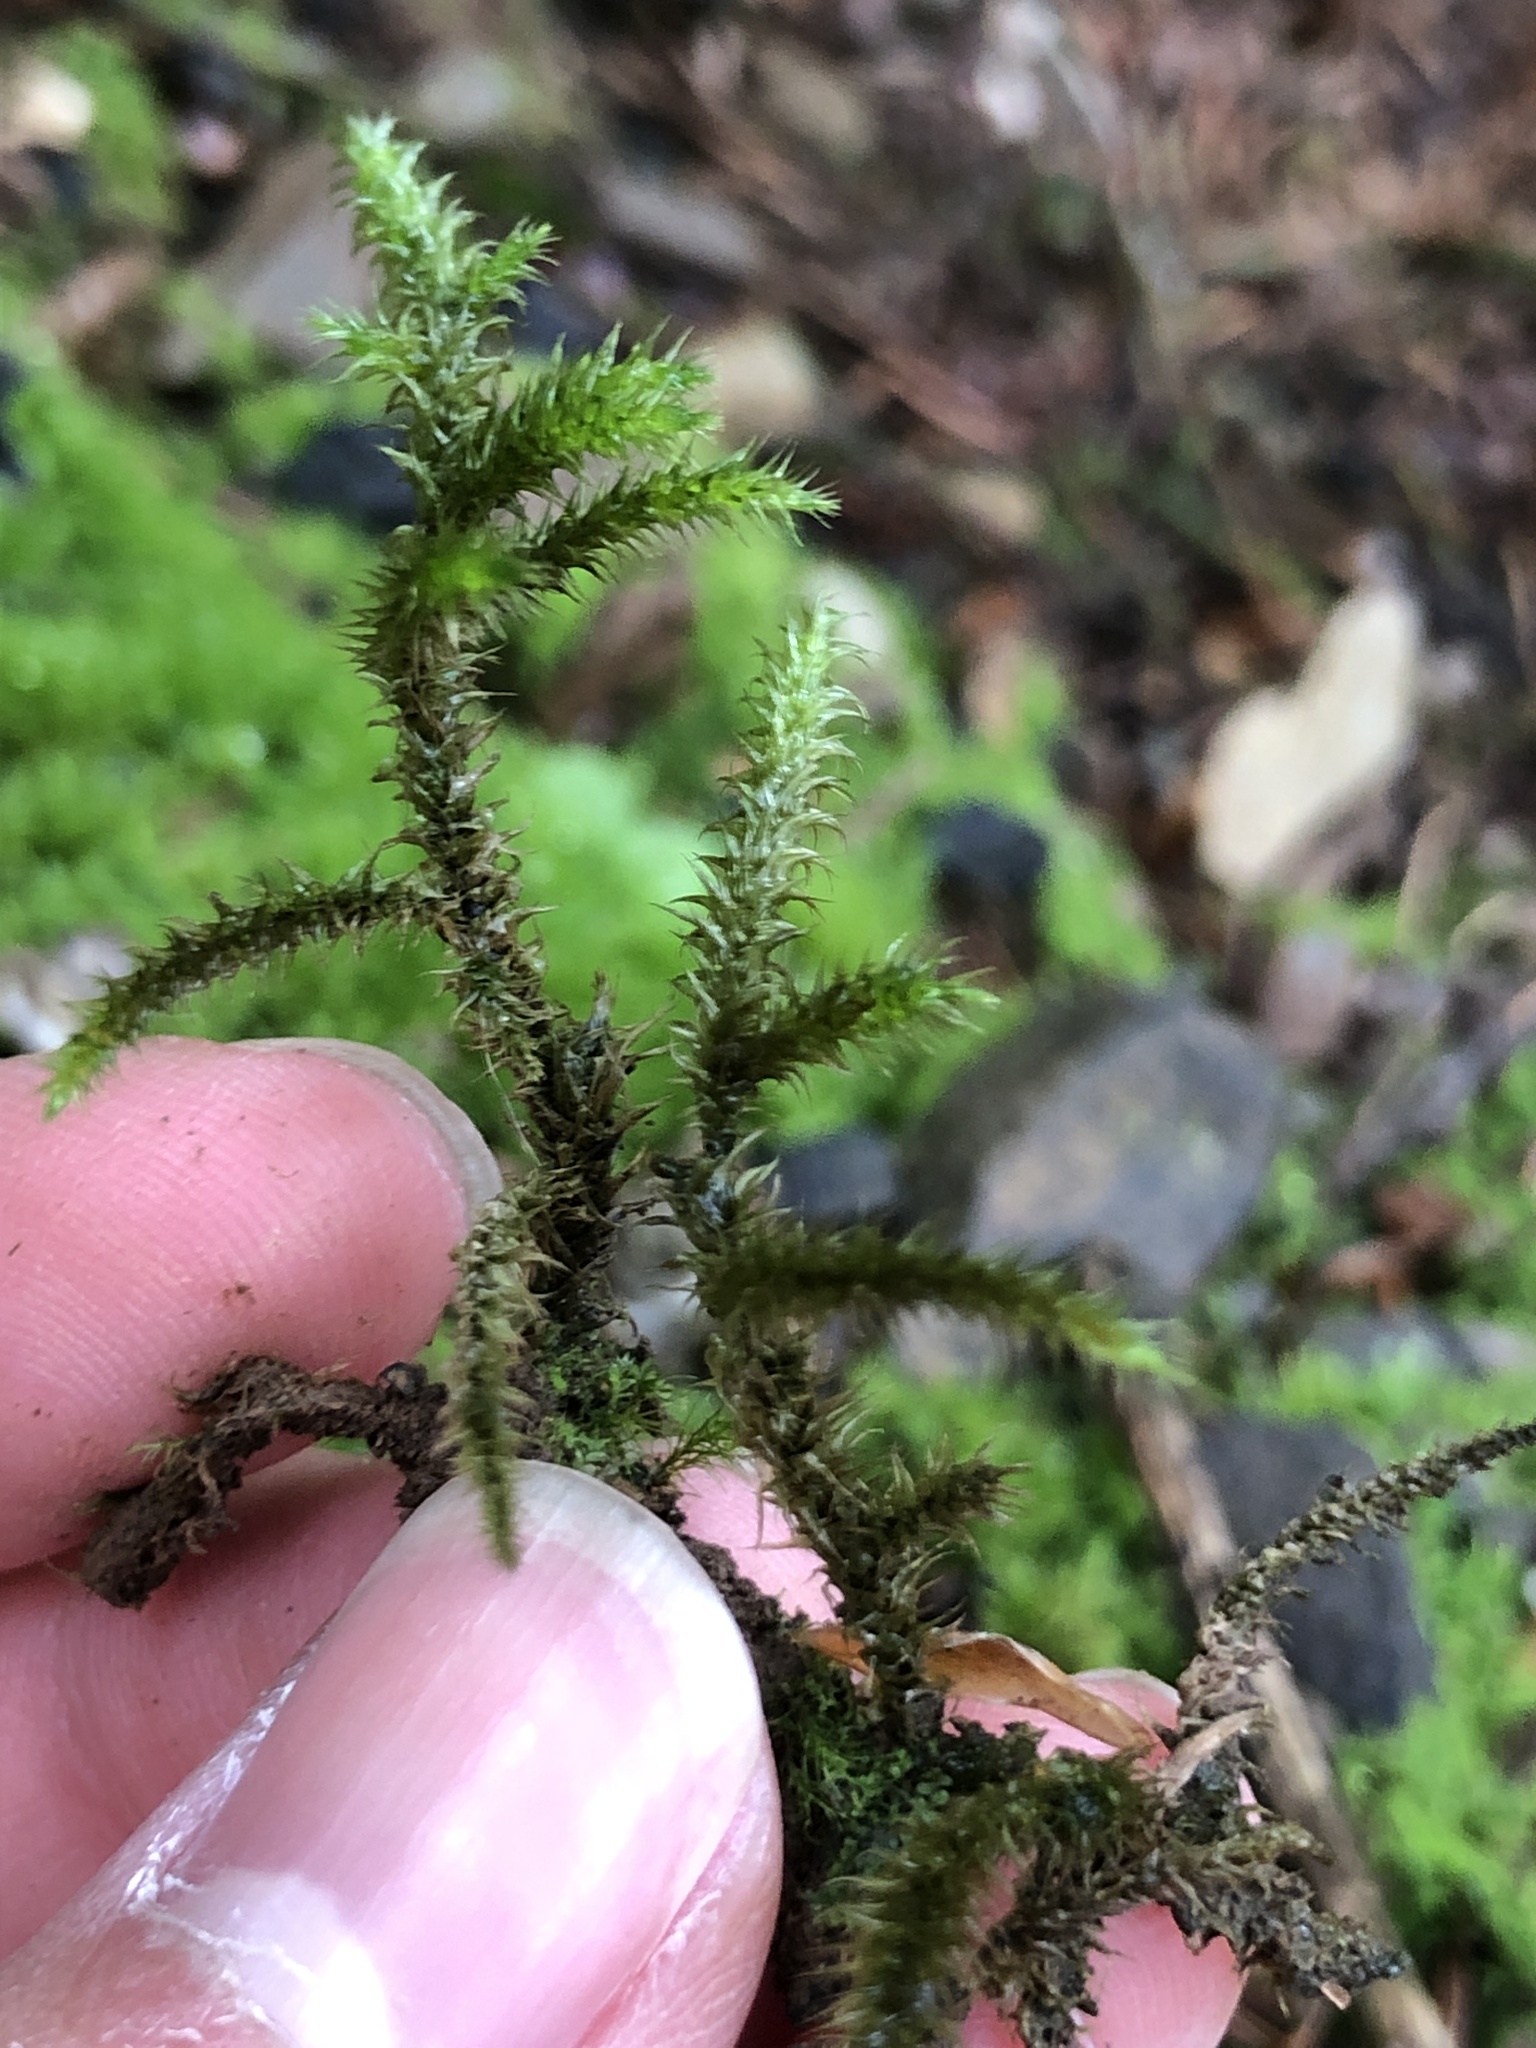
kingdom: Plantae
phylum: Bryophyta
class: Bryopsida
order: Hypnales
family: Hylocomiaceae
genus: Rhytidiadelphus
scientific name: Rhytidiadelphus loreus
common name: Lanky moss
